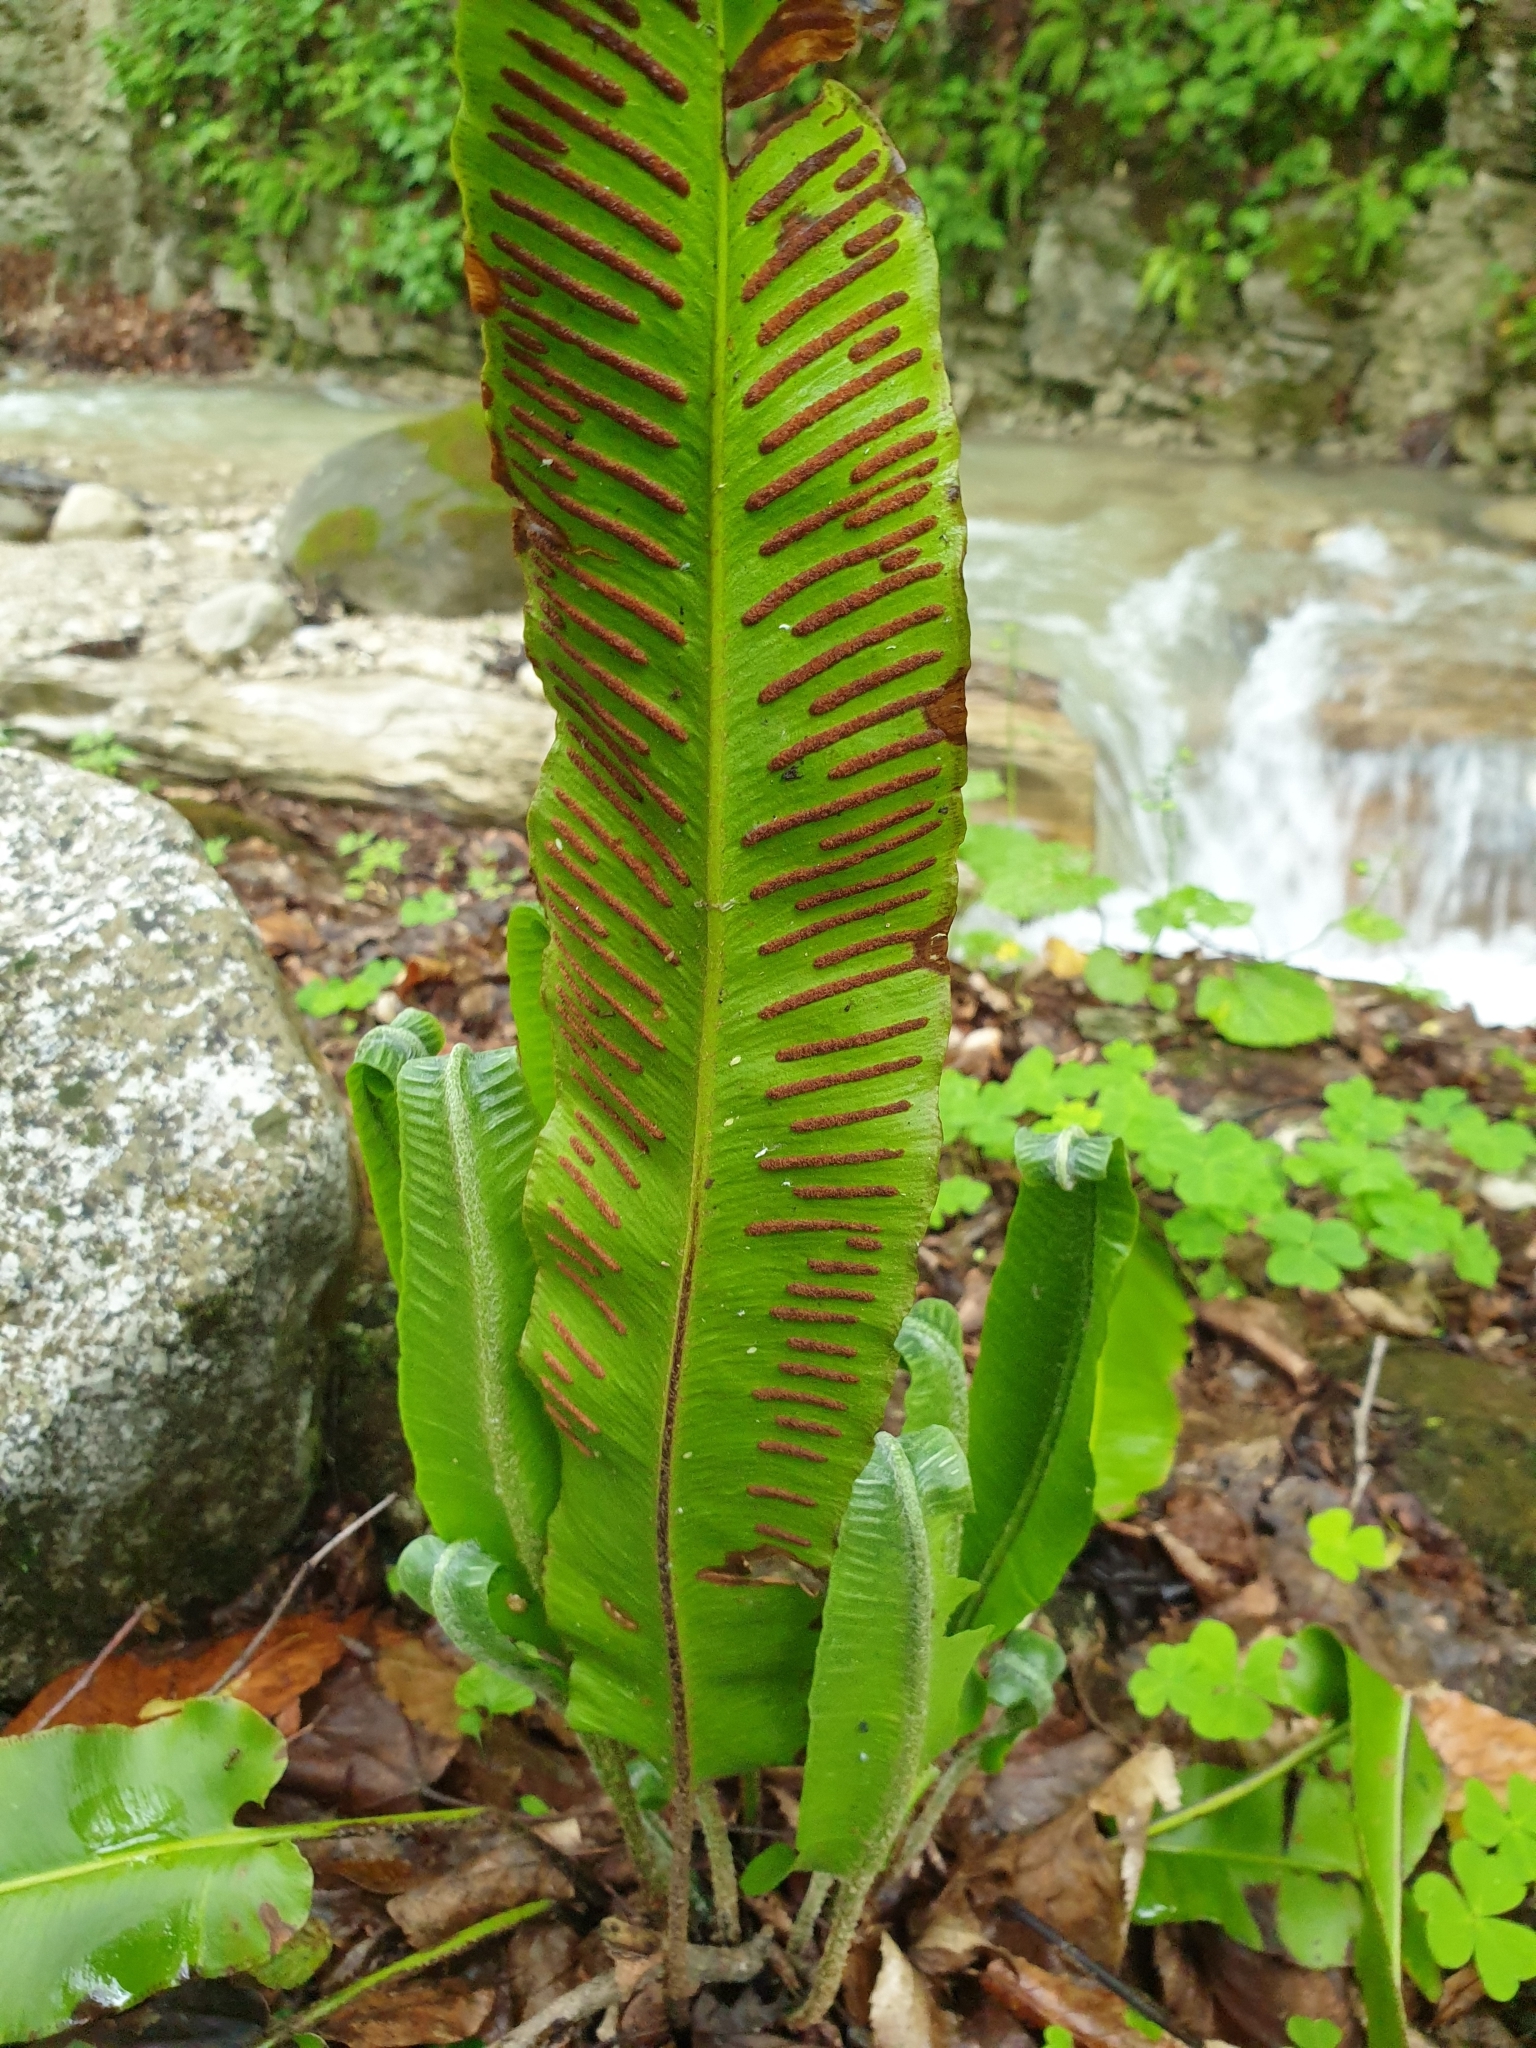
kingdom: Plantae
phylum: Tracheophyta
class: Polypodiopsida
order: Polypodiales
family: Aspleniaceae
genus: Asplenium
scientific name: Asplenium scolopendrium
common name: Hart's-tongue fern
